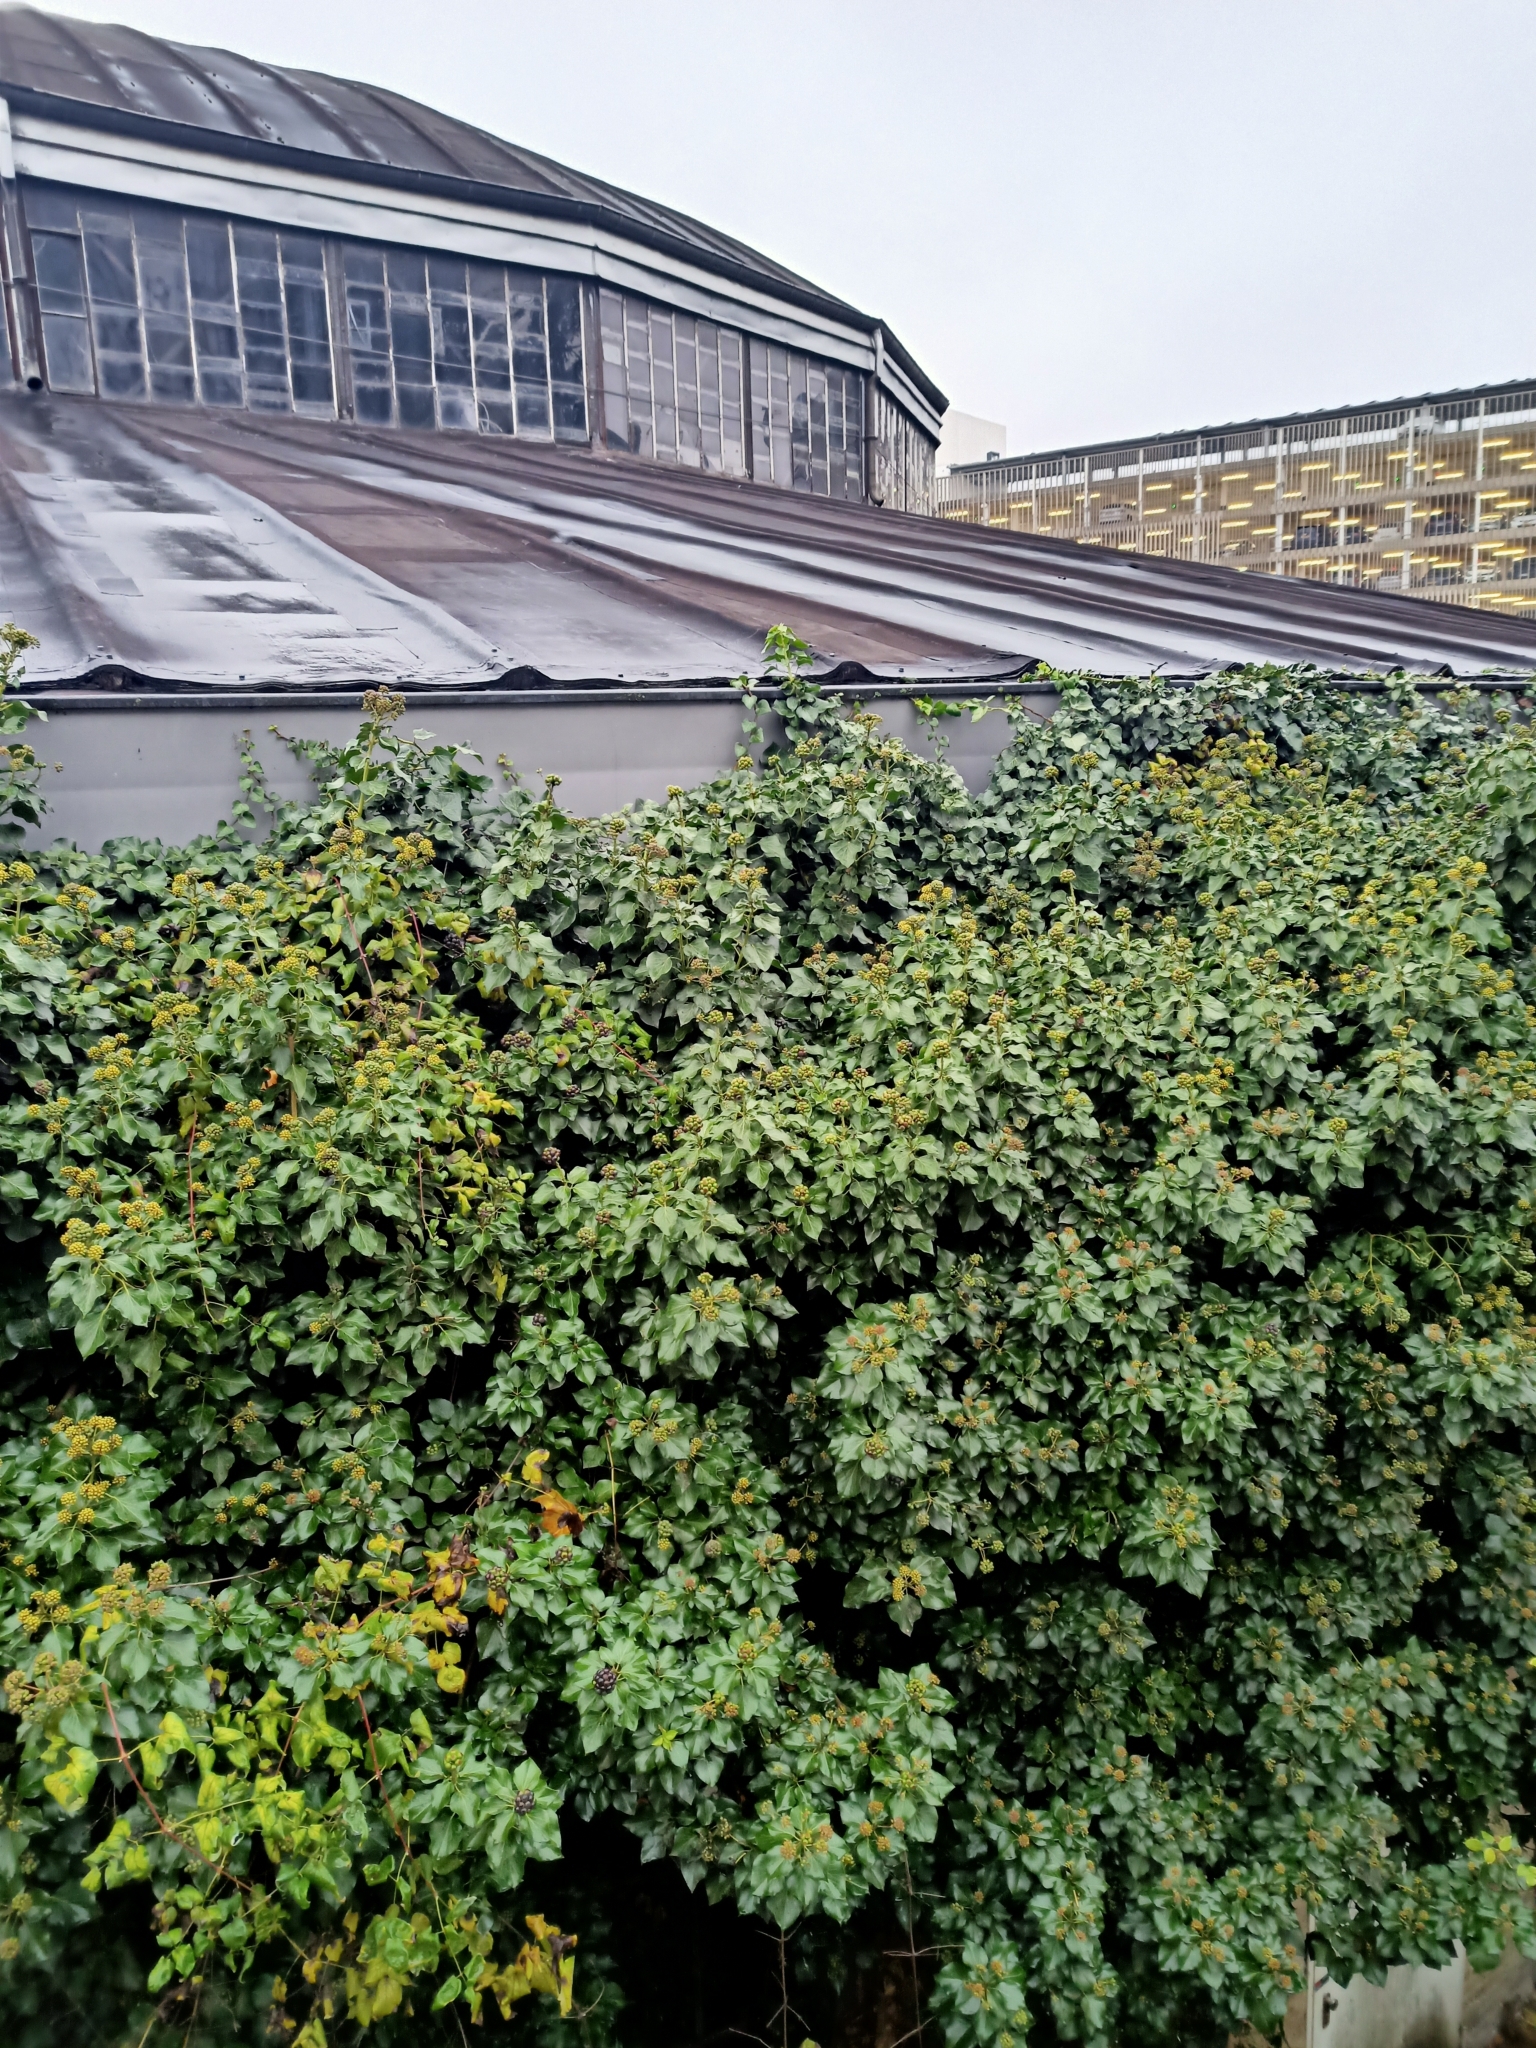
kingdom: Plantae
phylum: Tracheophyta
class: Magnoliopsida
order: Apiales
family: Araliaceae
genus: Hedera
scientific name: Hedera helix
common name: Ivy
